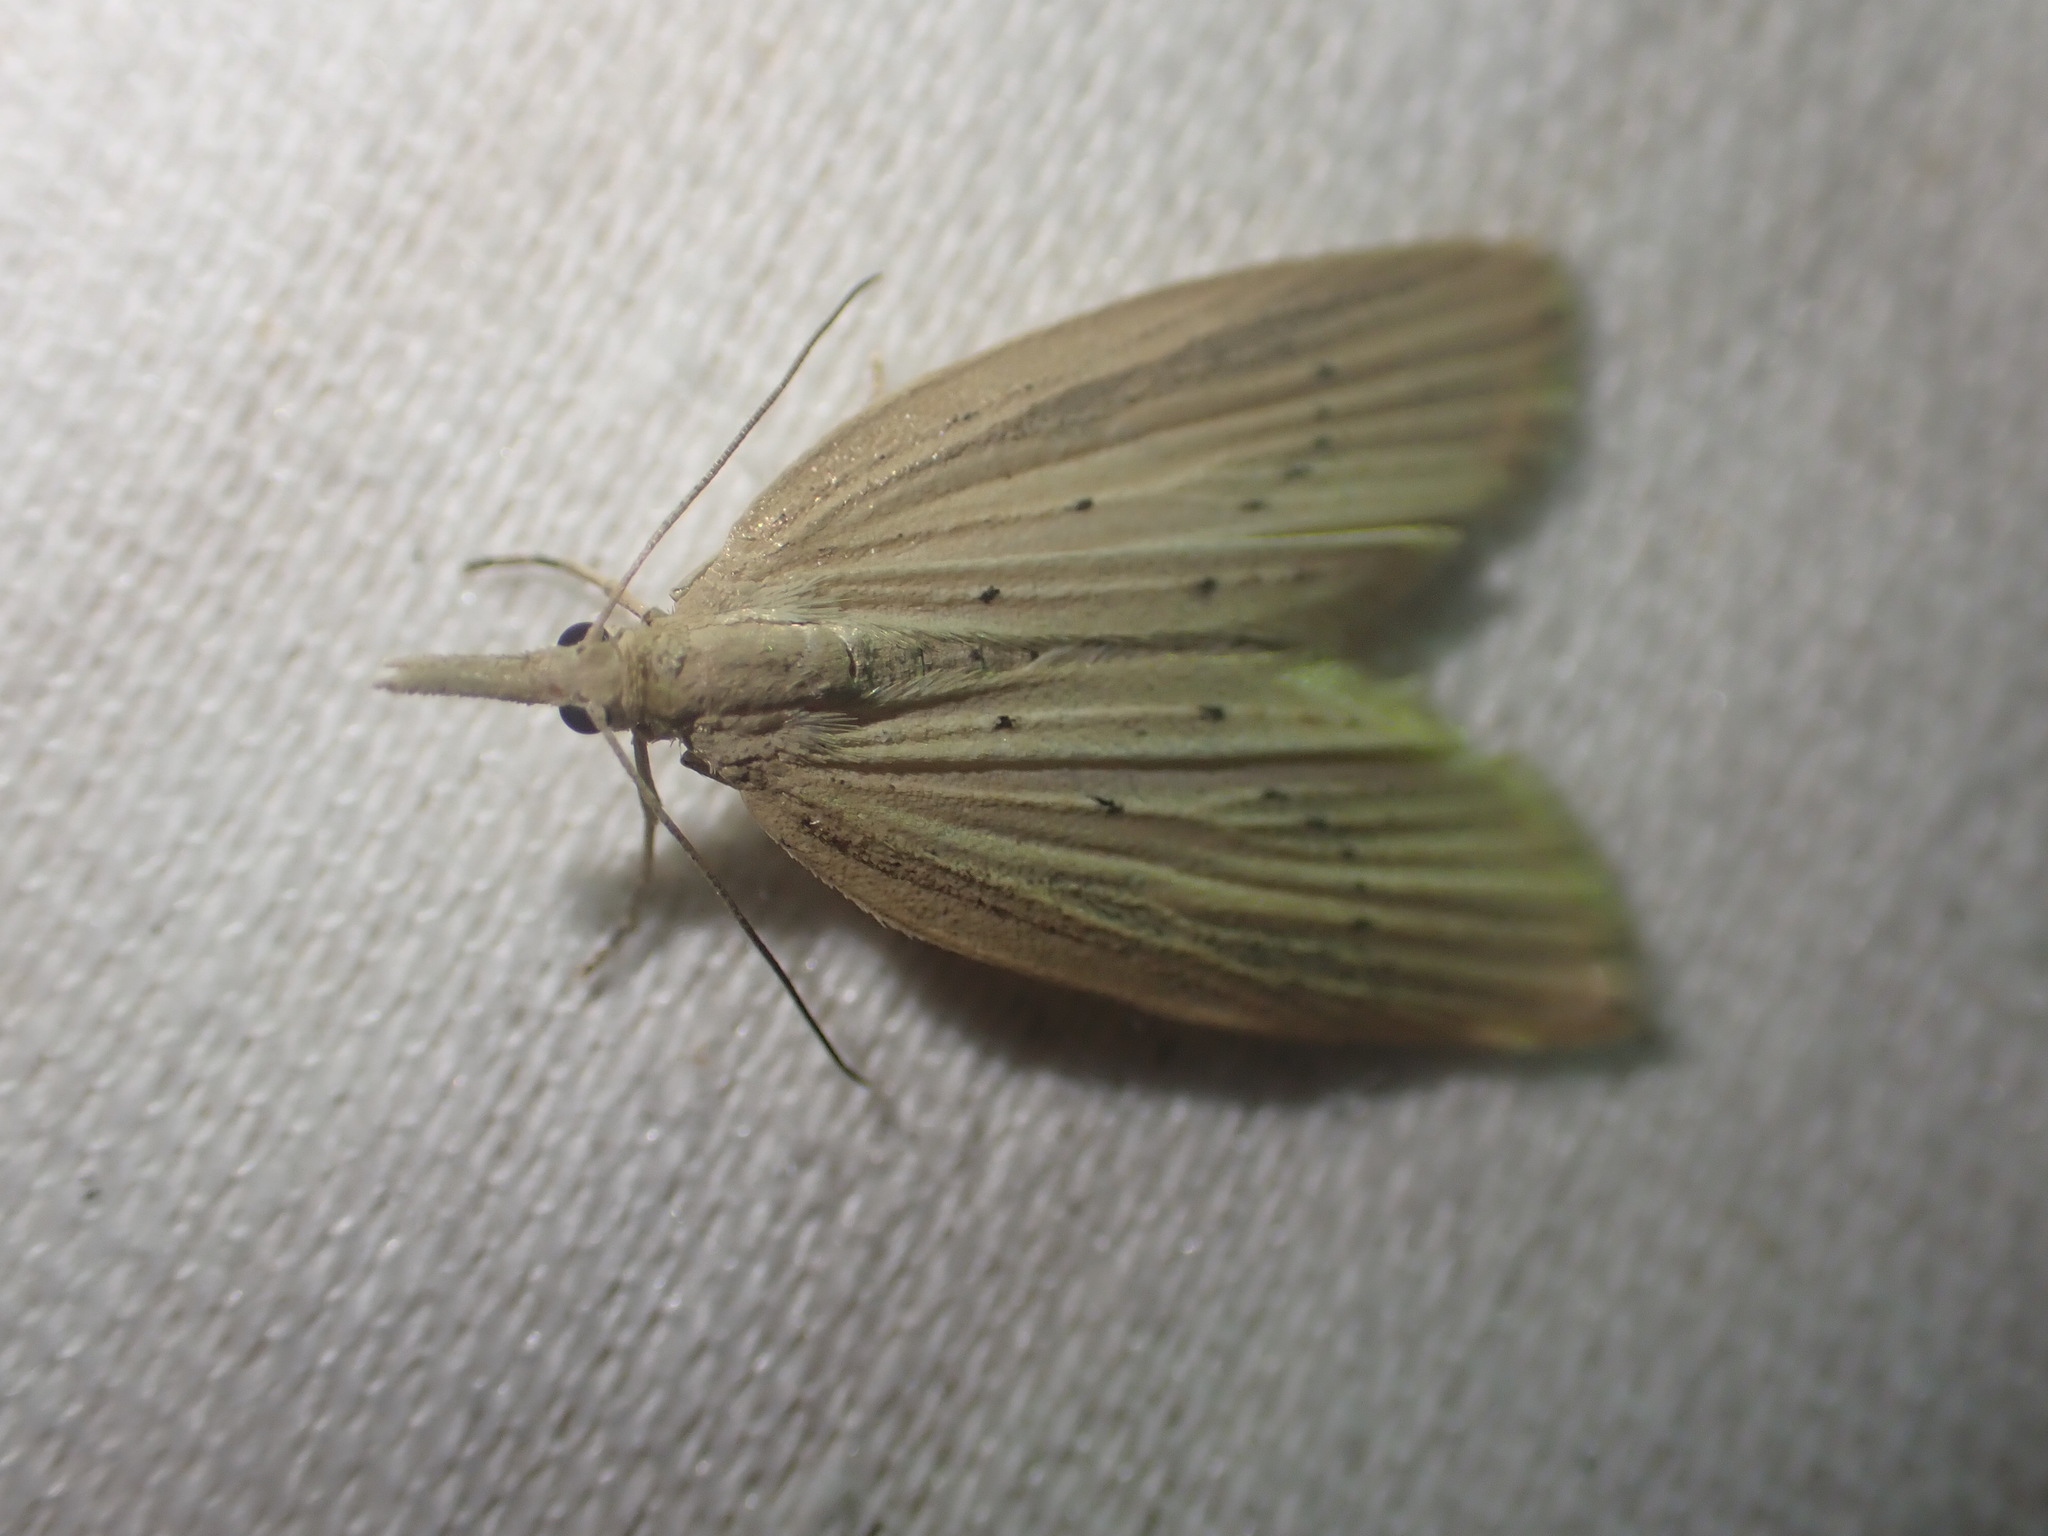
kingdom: Animalia
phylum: Arthropoda
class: Insecta
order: Lepidoptera
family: Geometridae
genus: Microdes
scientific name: Microdes epicryptis
